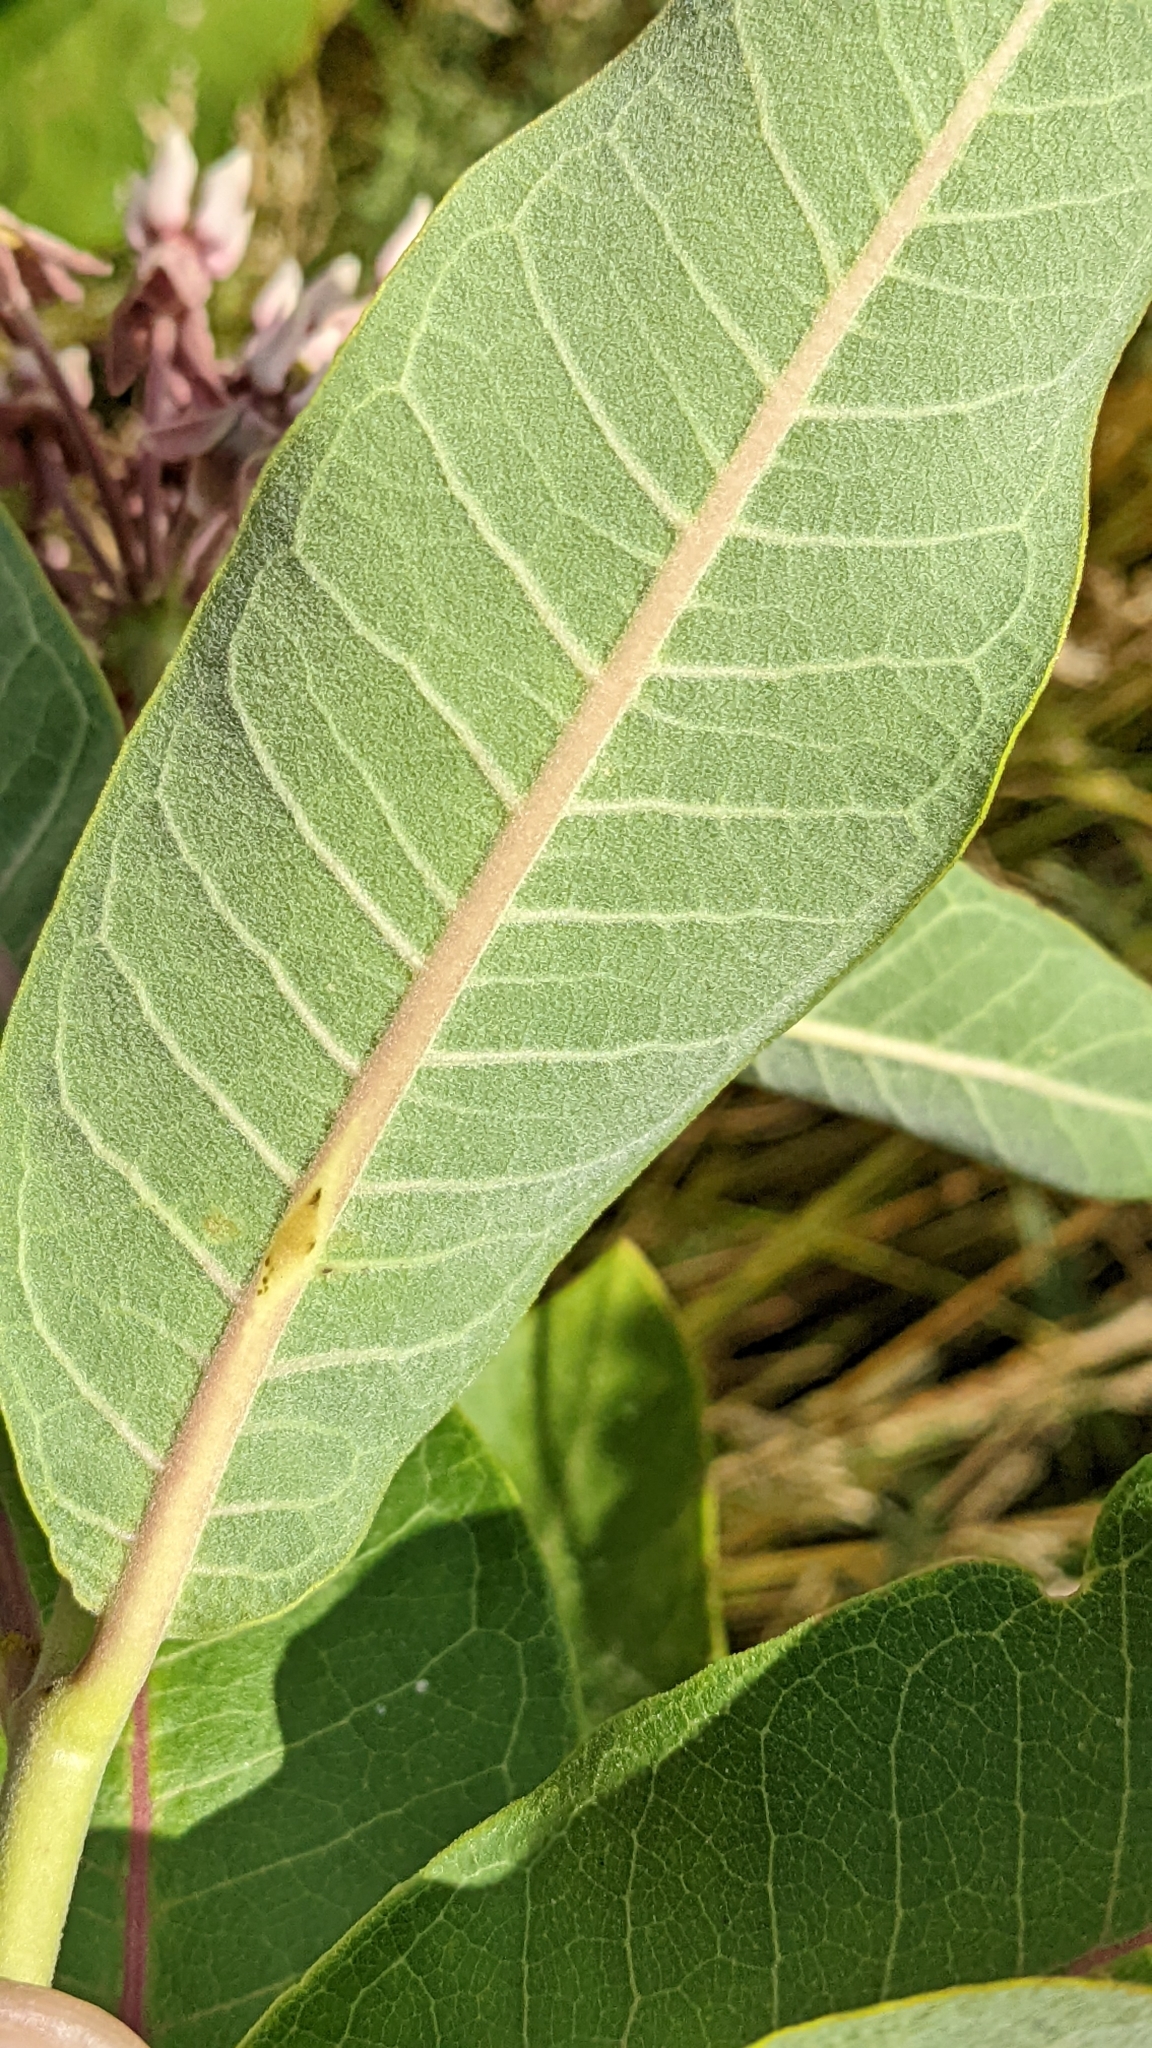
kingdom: Plantae
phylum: Tracheophyta
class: Magnoliopsida
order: Gentianales
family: Apocynaceae
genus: Asclepias
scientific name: Asclepias syriaca
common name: Common milkweed
